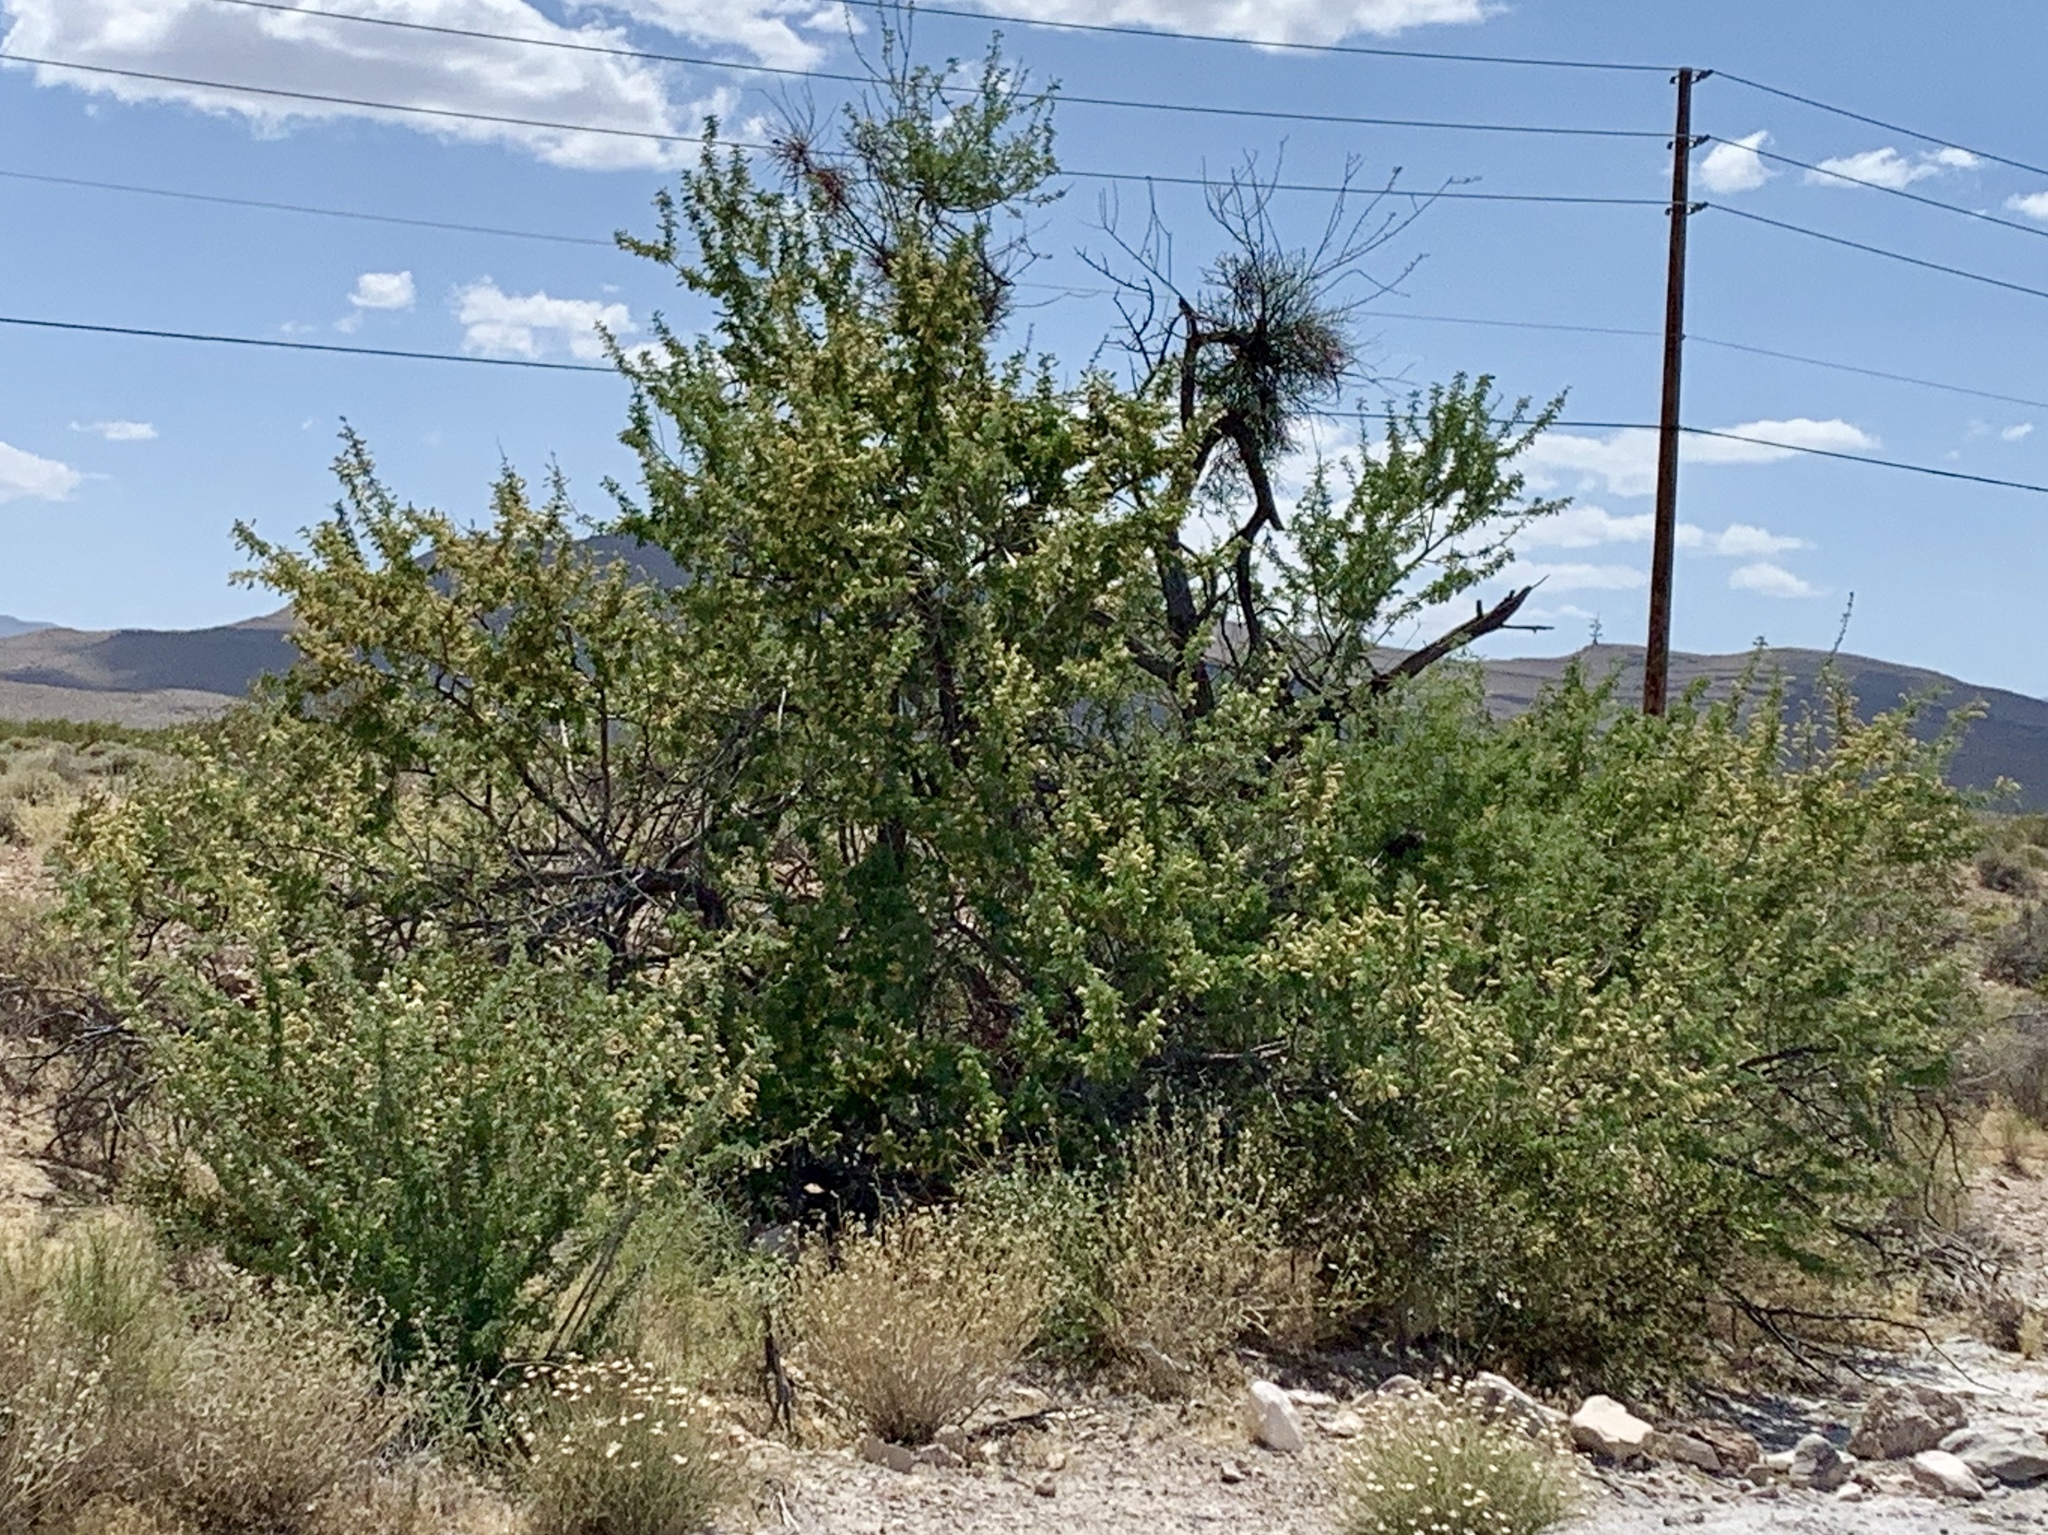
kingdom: Plantae
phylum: Tracheophyta
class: Magnoliopsida
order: Fabales
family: Fabaceae
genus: Senegalia
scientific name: Senegalia greggii
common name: Texas-mimosa
